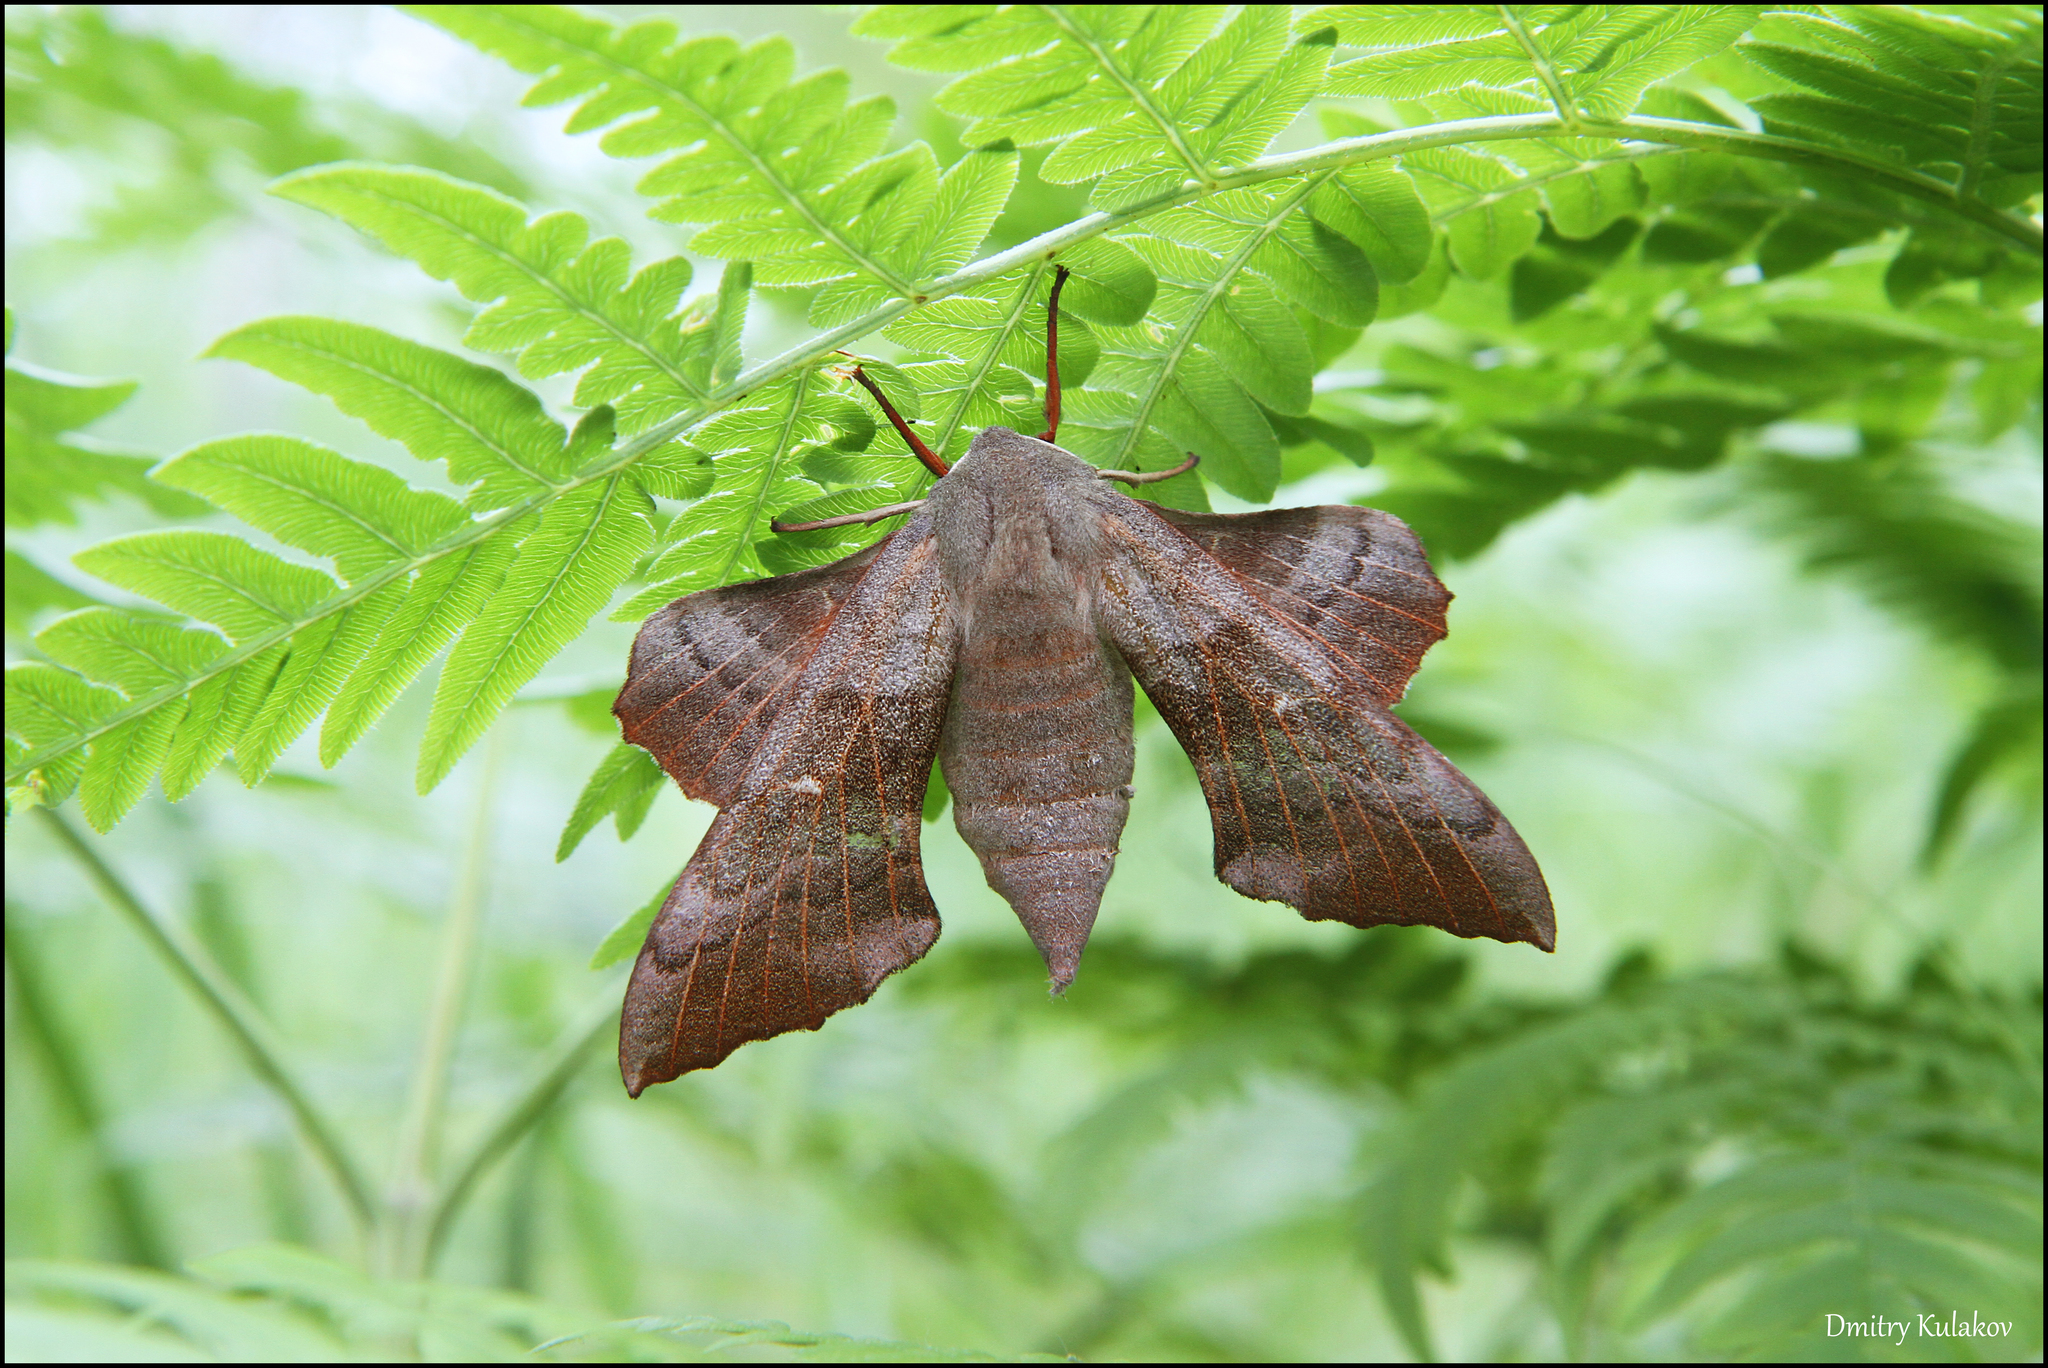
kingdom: Animalia
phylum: Arthropoda
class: Insecta
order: Lepidoptera
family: Sphingidae
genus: Laothoe
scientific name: Laothoe populi
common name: Poplar hawk-moth
